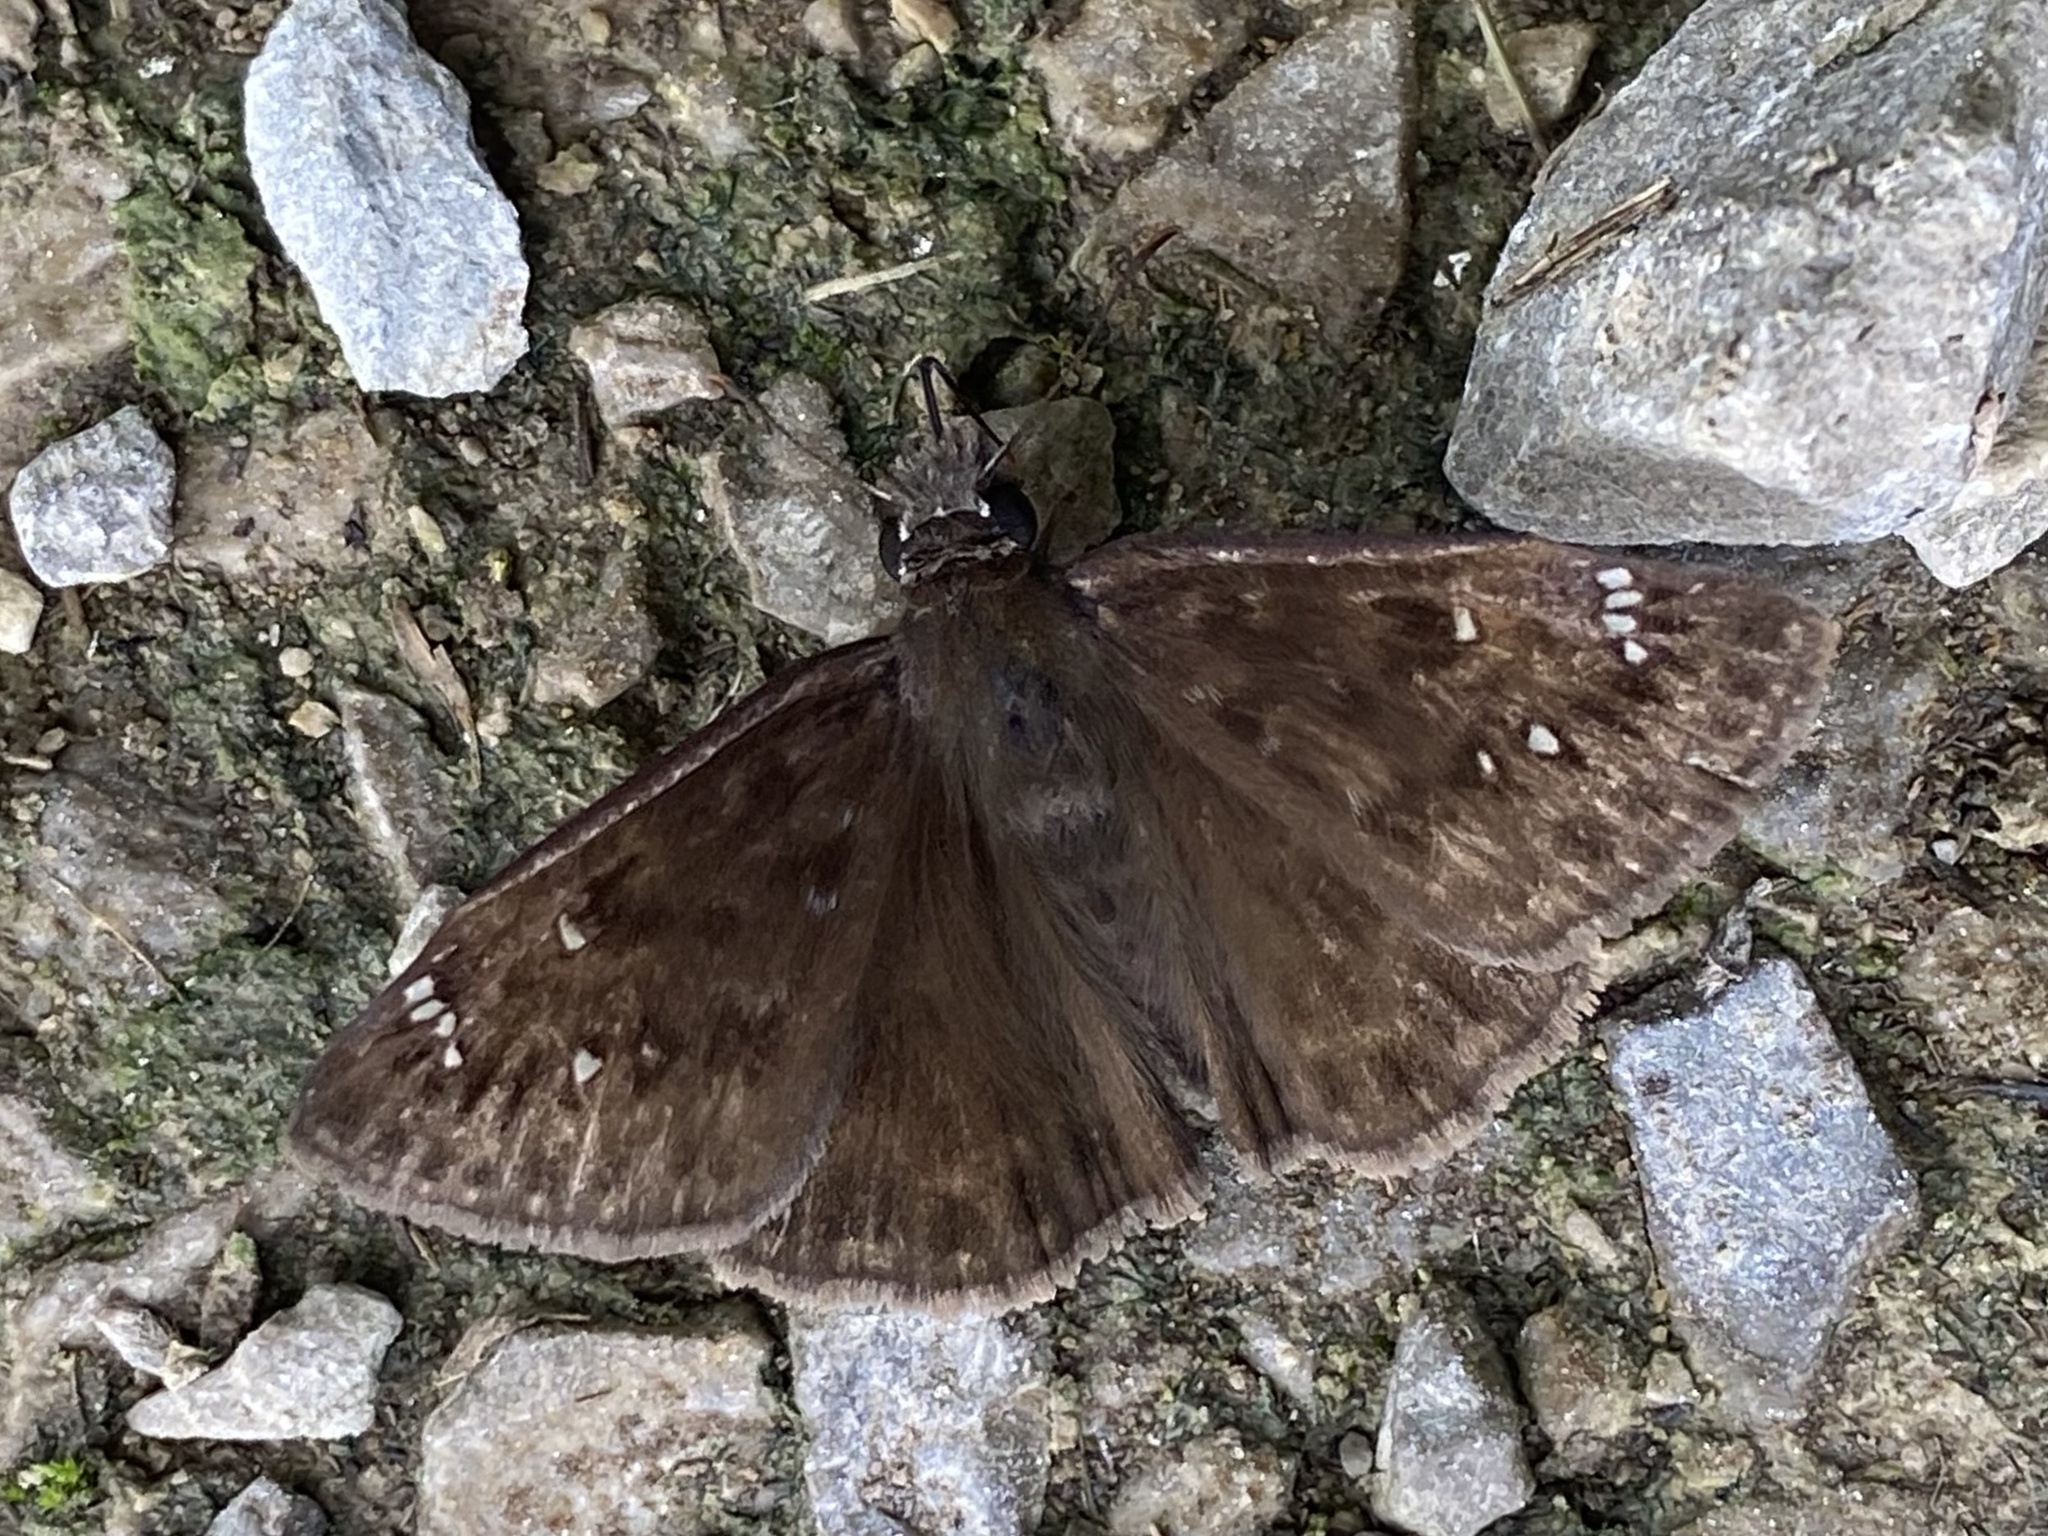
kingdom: Animalia
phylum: Arthropoda
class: Insecta
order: Lepidoptera
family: Hesperiidae
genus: Erynnis
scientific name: Erynnis horatius
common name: Horace's duskywing
